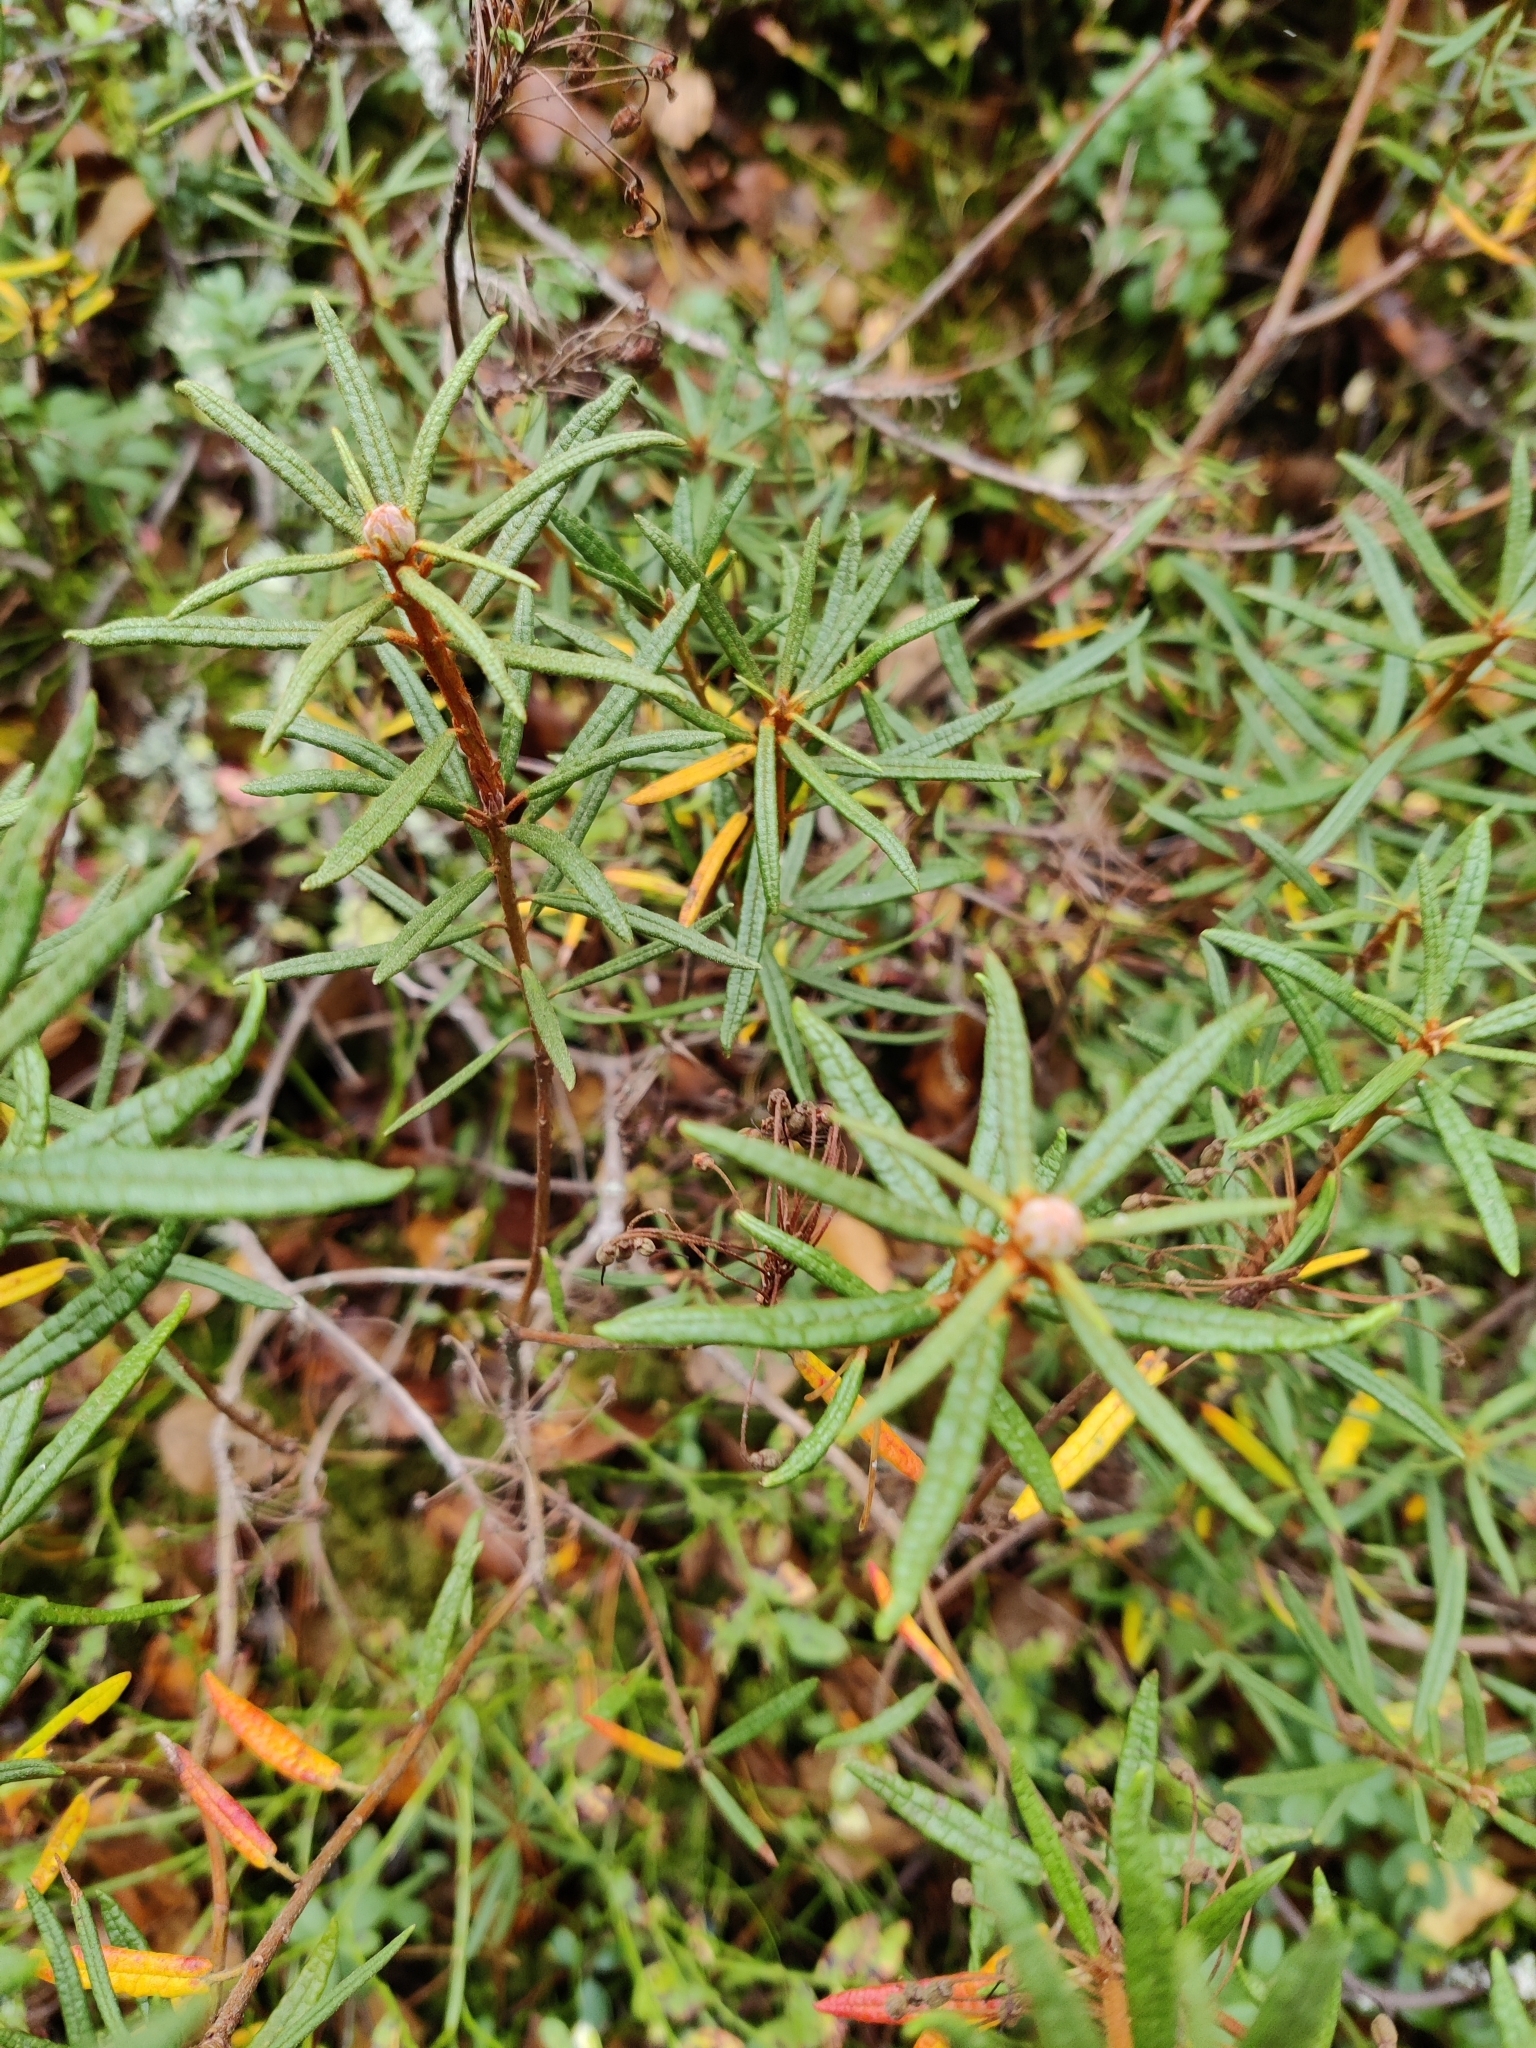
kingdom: Plantae
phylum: Tracheophyta
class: Magnoliopsida
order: Ericales
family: Ericaceae
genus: Rhododendron
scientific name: Rhododendron tomentosum
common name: Marsh labrador tea
